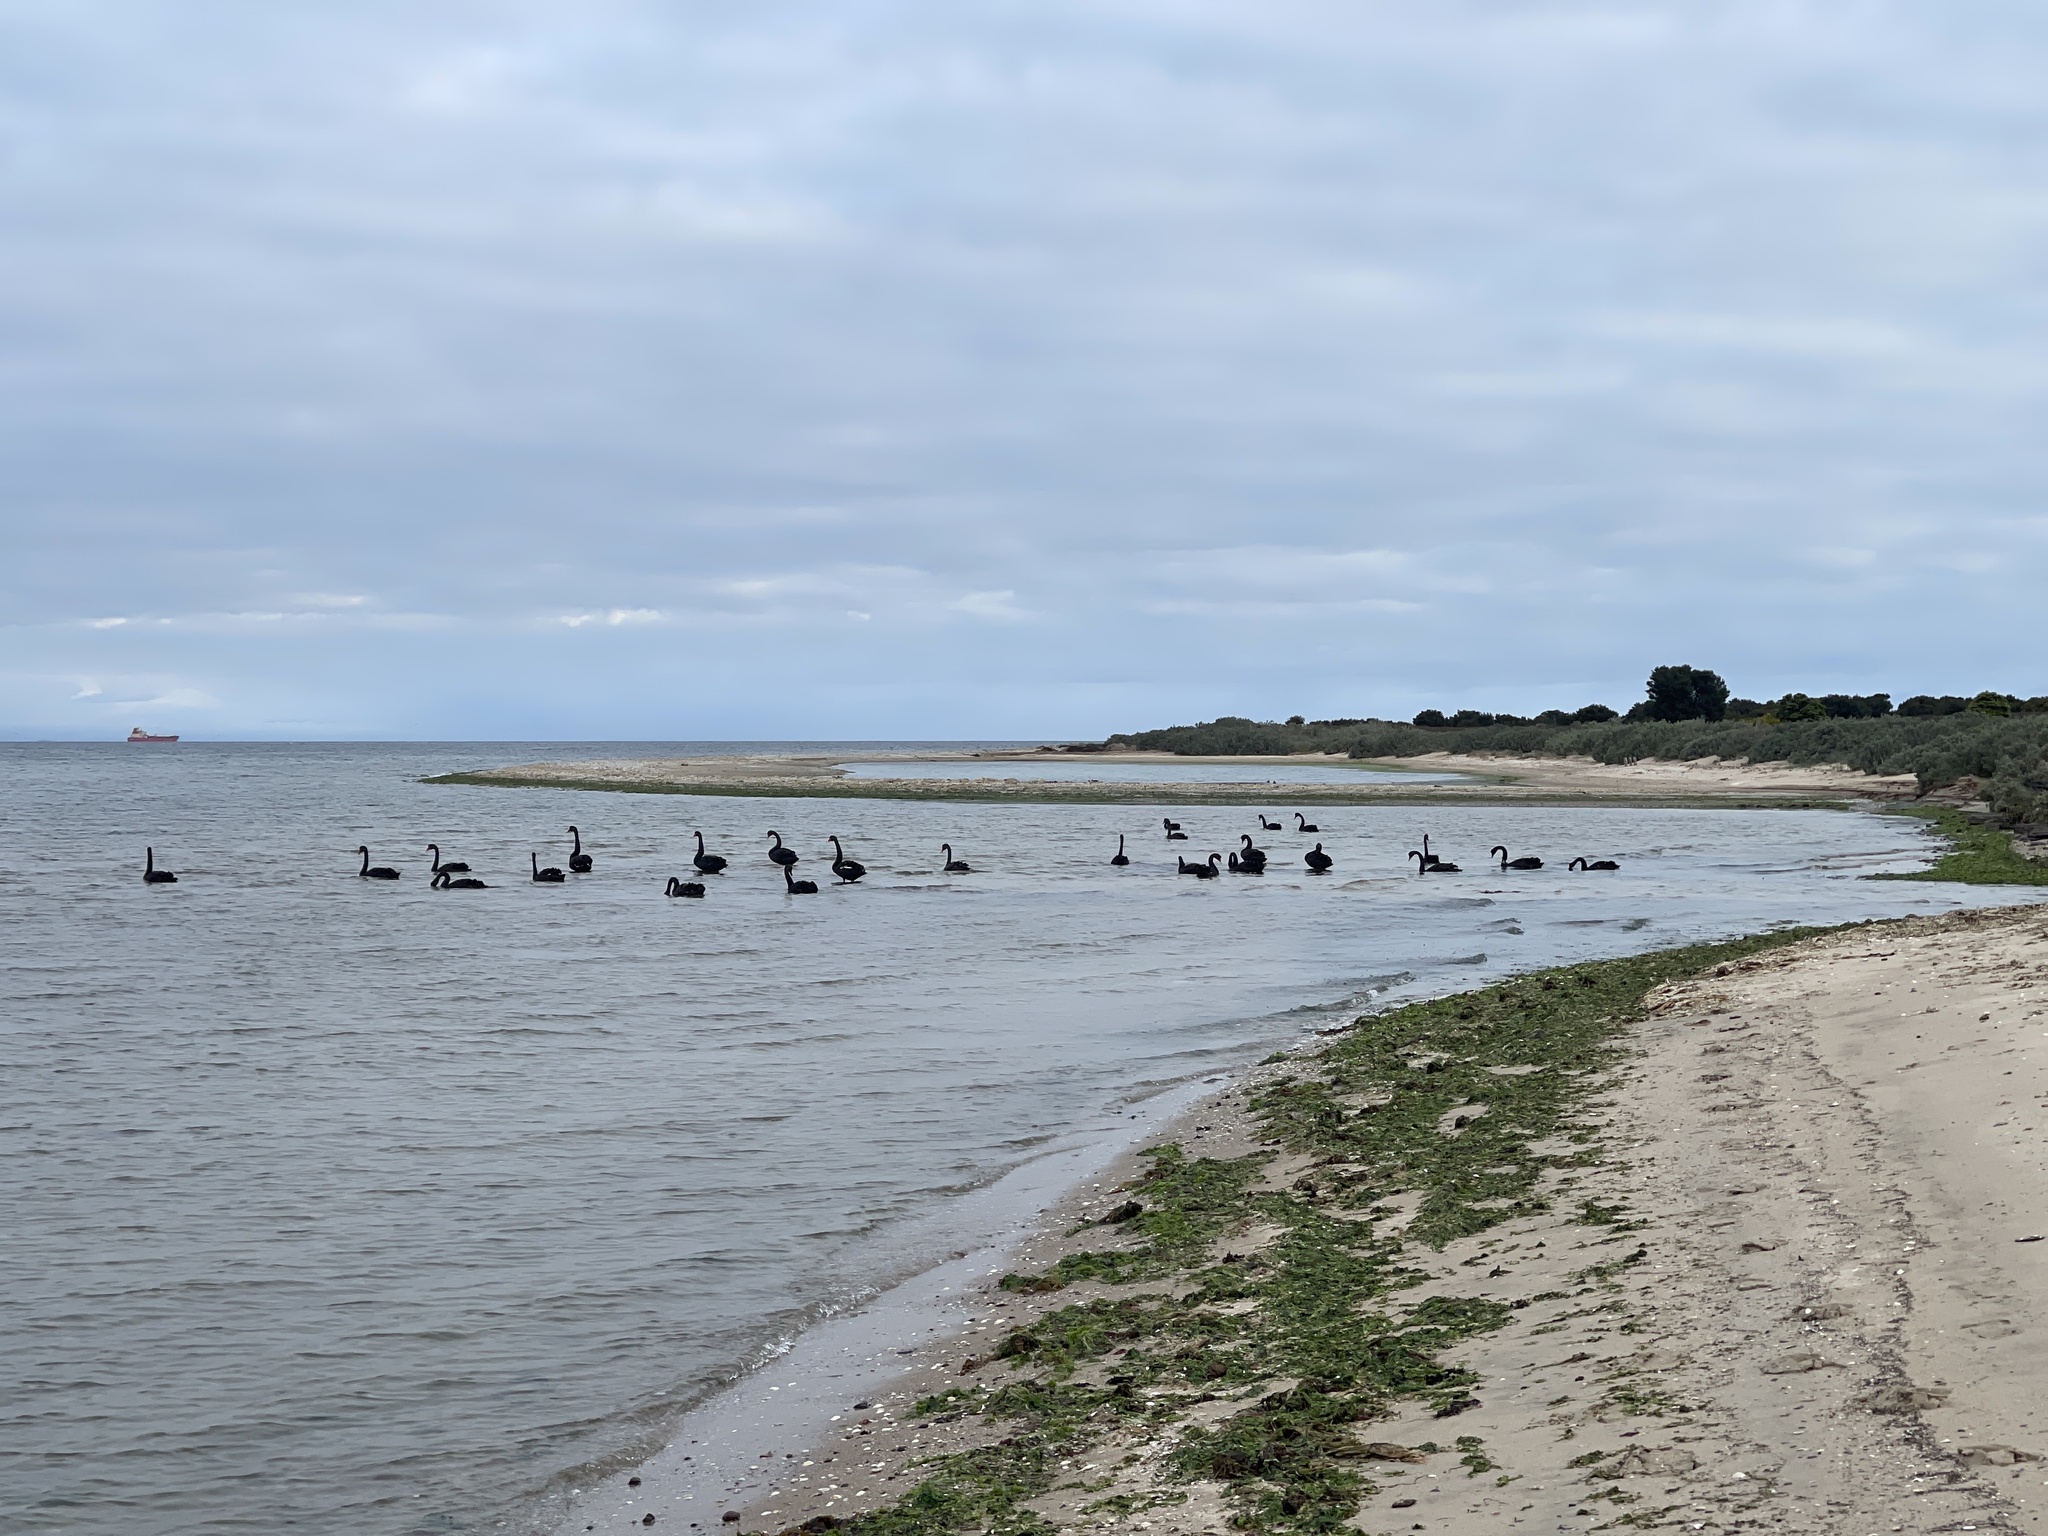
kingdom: Animalia
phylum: Chordata
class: Aves
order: Anseriformes
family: Anatidae
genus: Cygnus
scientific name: Cygnus atratus
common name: Black swan
